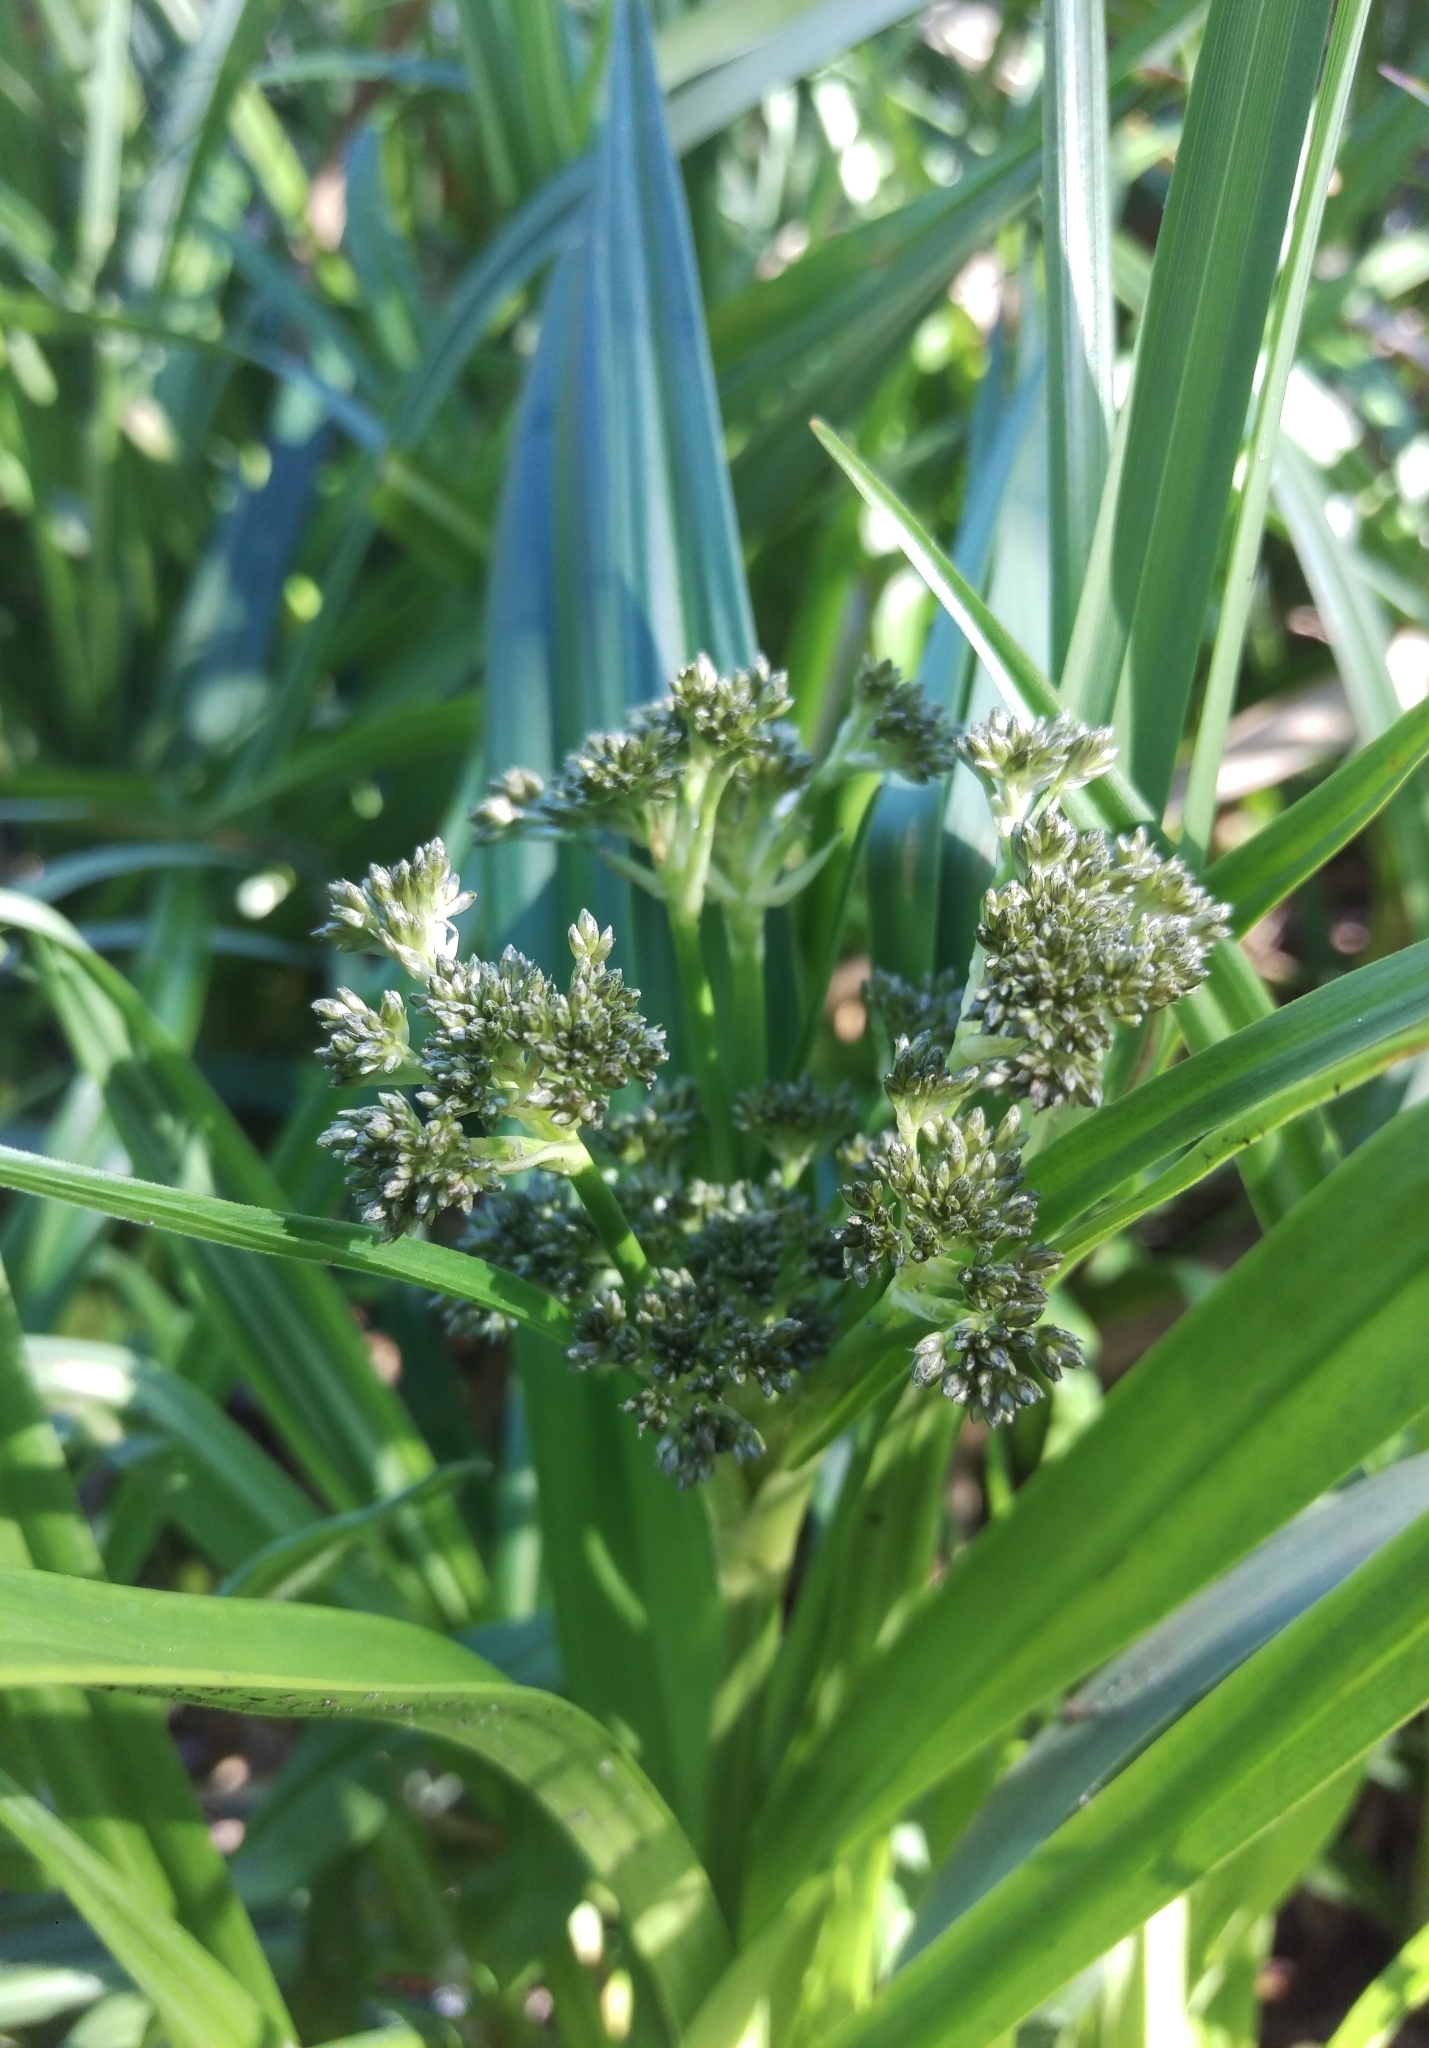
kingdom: Plantae
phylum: Tracheophyta
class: Liliopsida
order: Poales
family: Cyperaceae
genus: Scirpus
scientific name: Scirpus sylvaticus
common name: Wood club-rush
